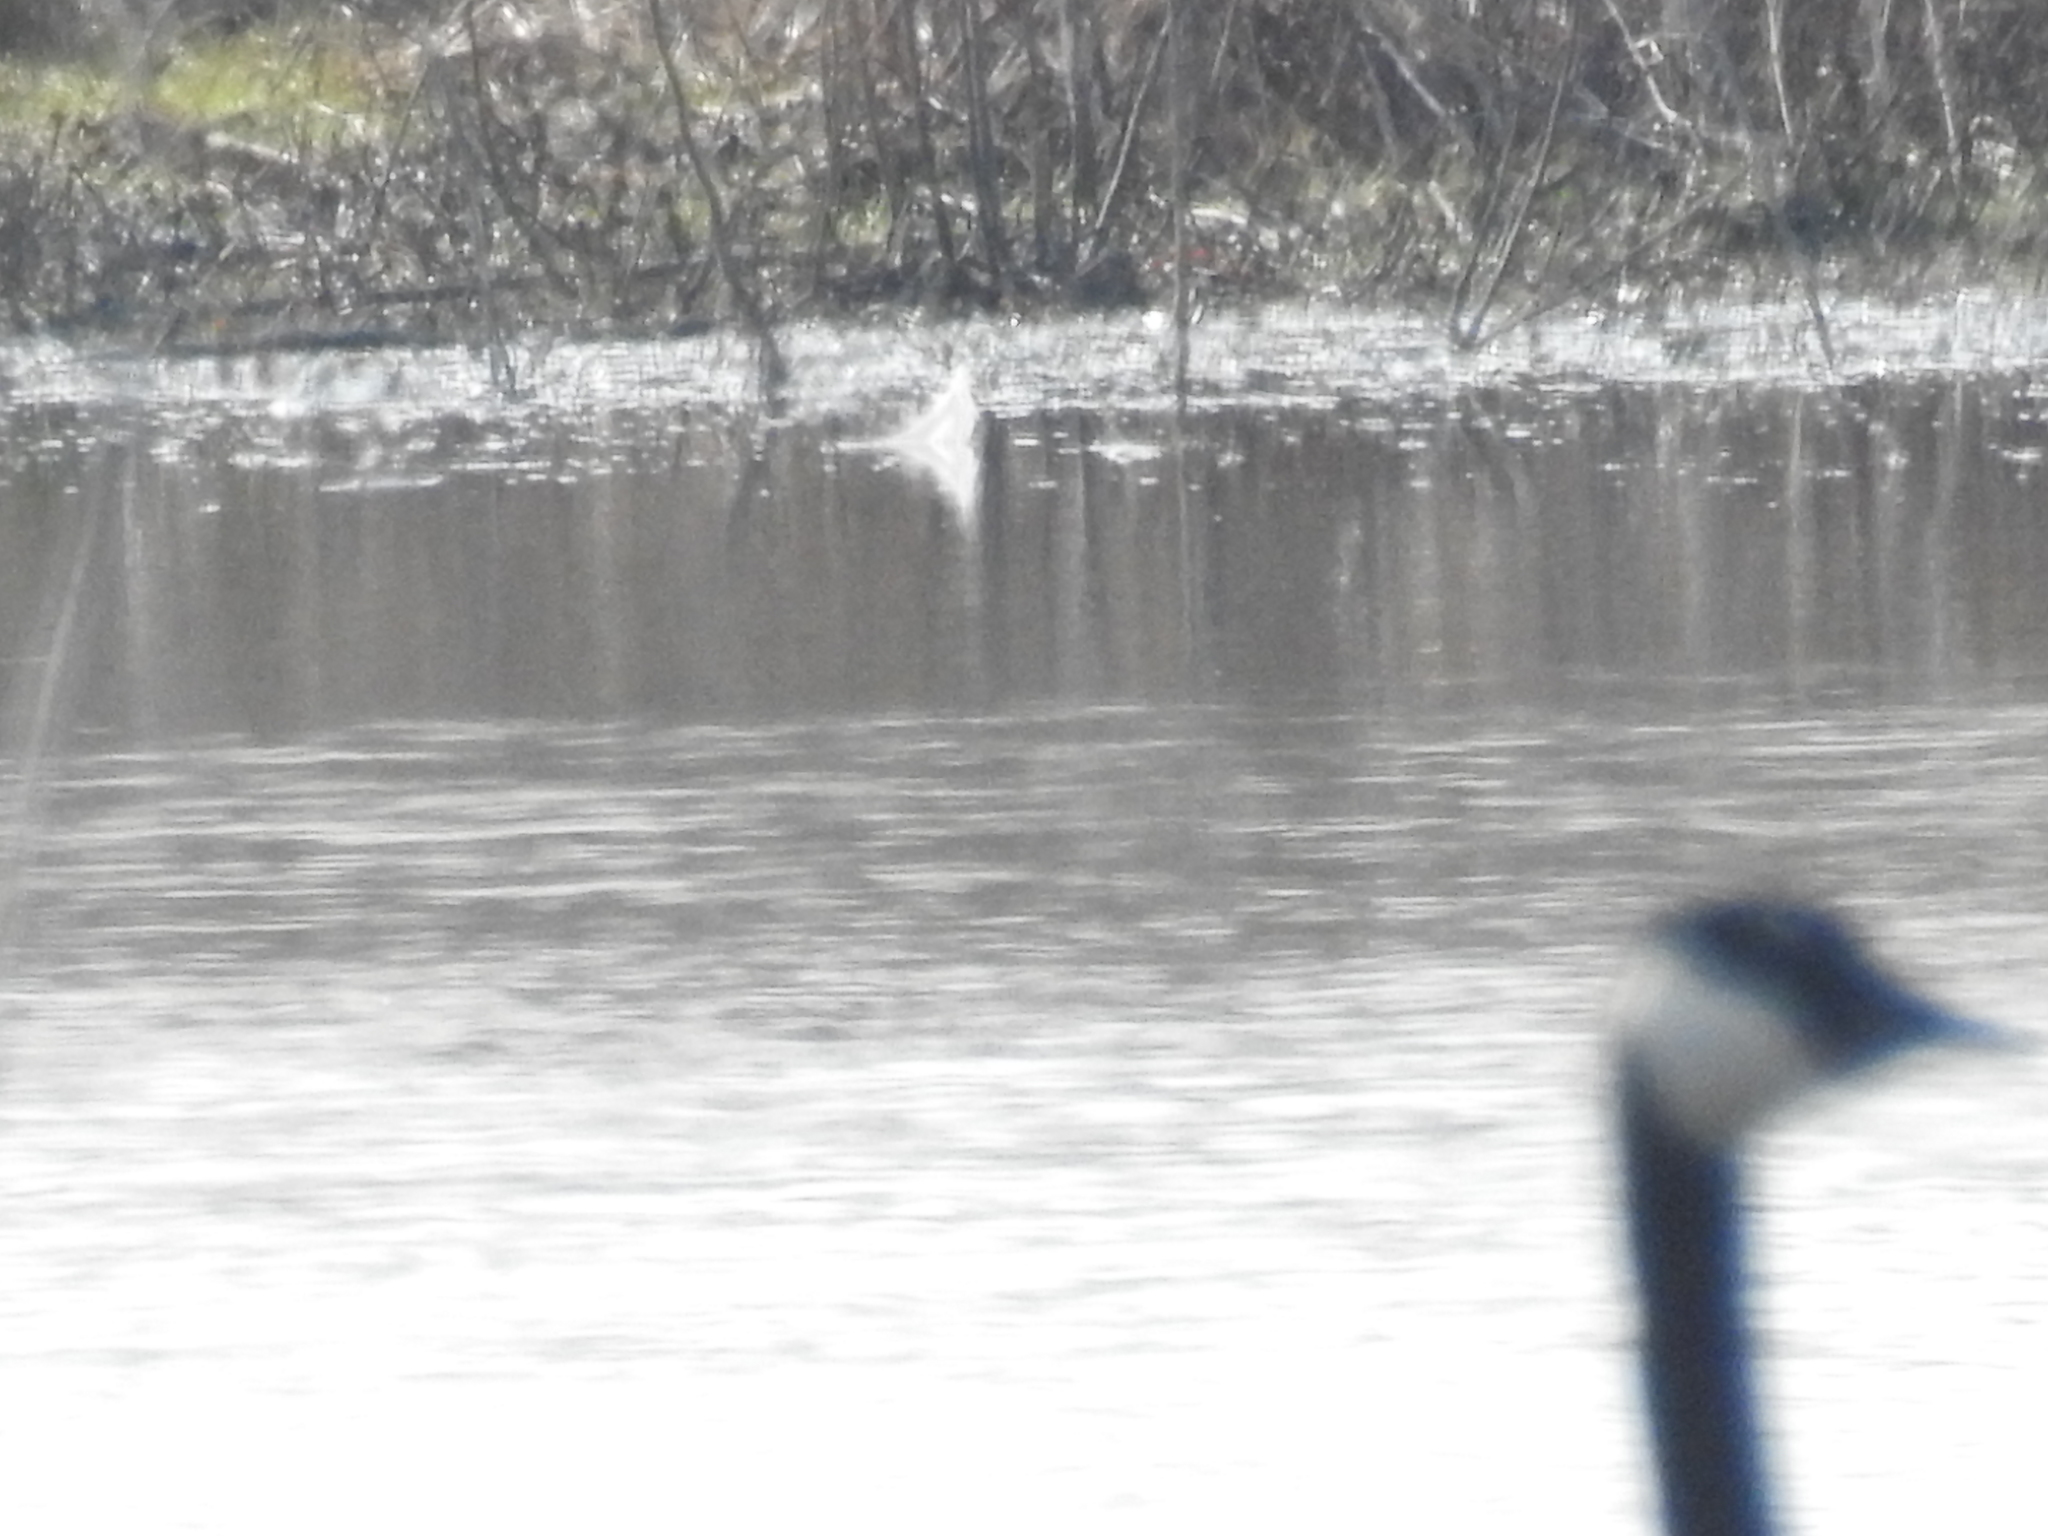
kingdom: Animalia
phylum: Chordata
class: Aves
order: Anseriformes
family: Anatidae
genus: Branta
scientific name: Branta canadensis
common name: Canada goose
